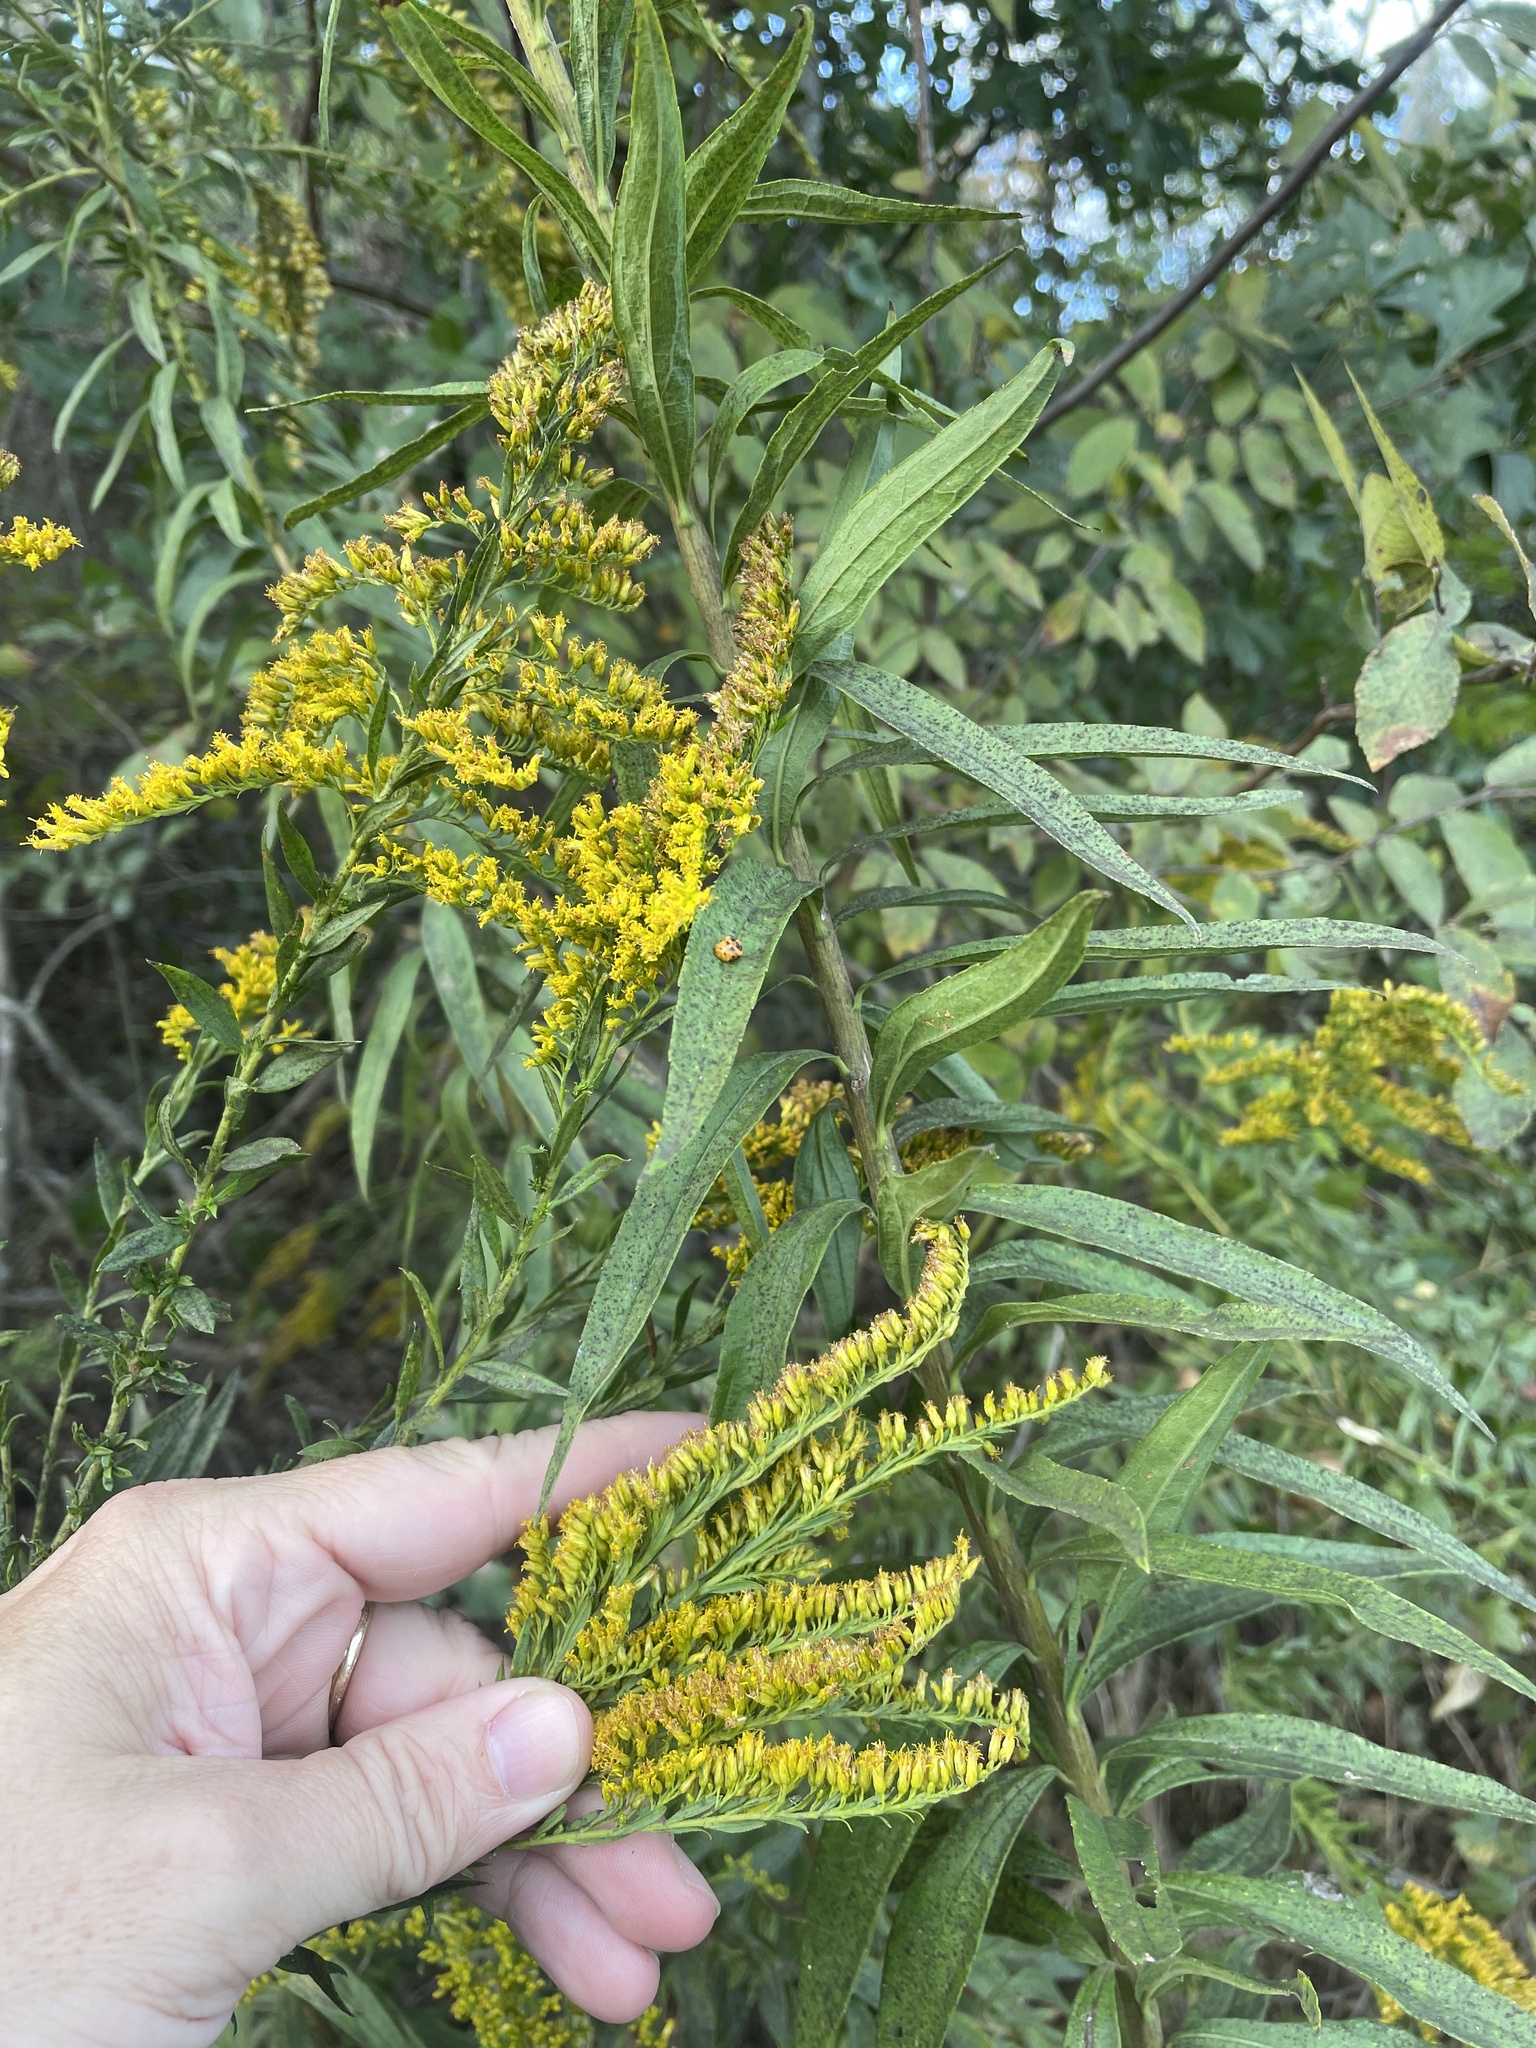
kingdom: Plantae
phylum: Tracheophyta
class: Magnoliopsida
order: Asterales
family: Asteraceae
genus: Solidago
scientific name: Solidago altissima
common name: Late goldenrod
